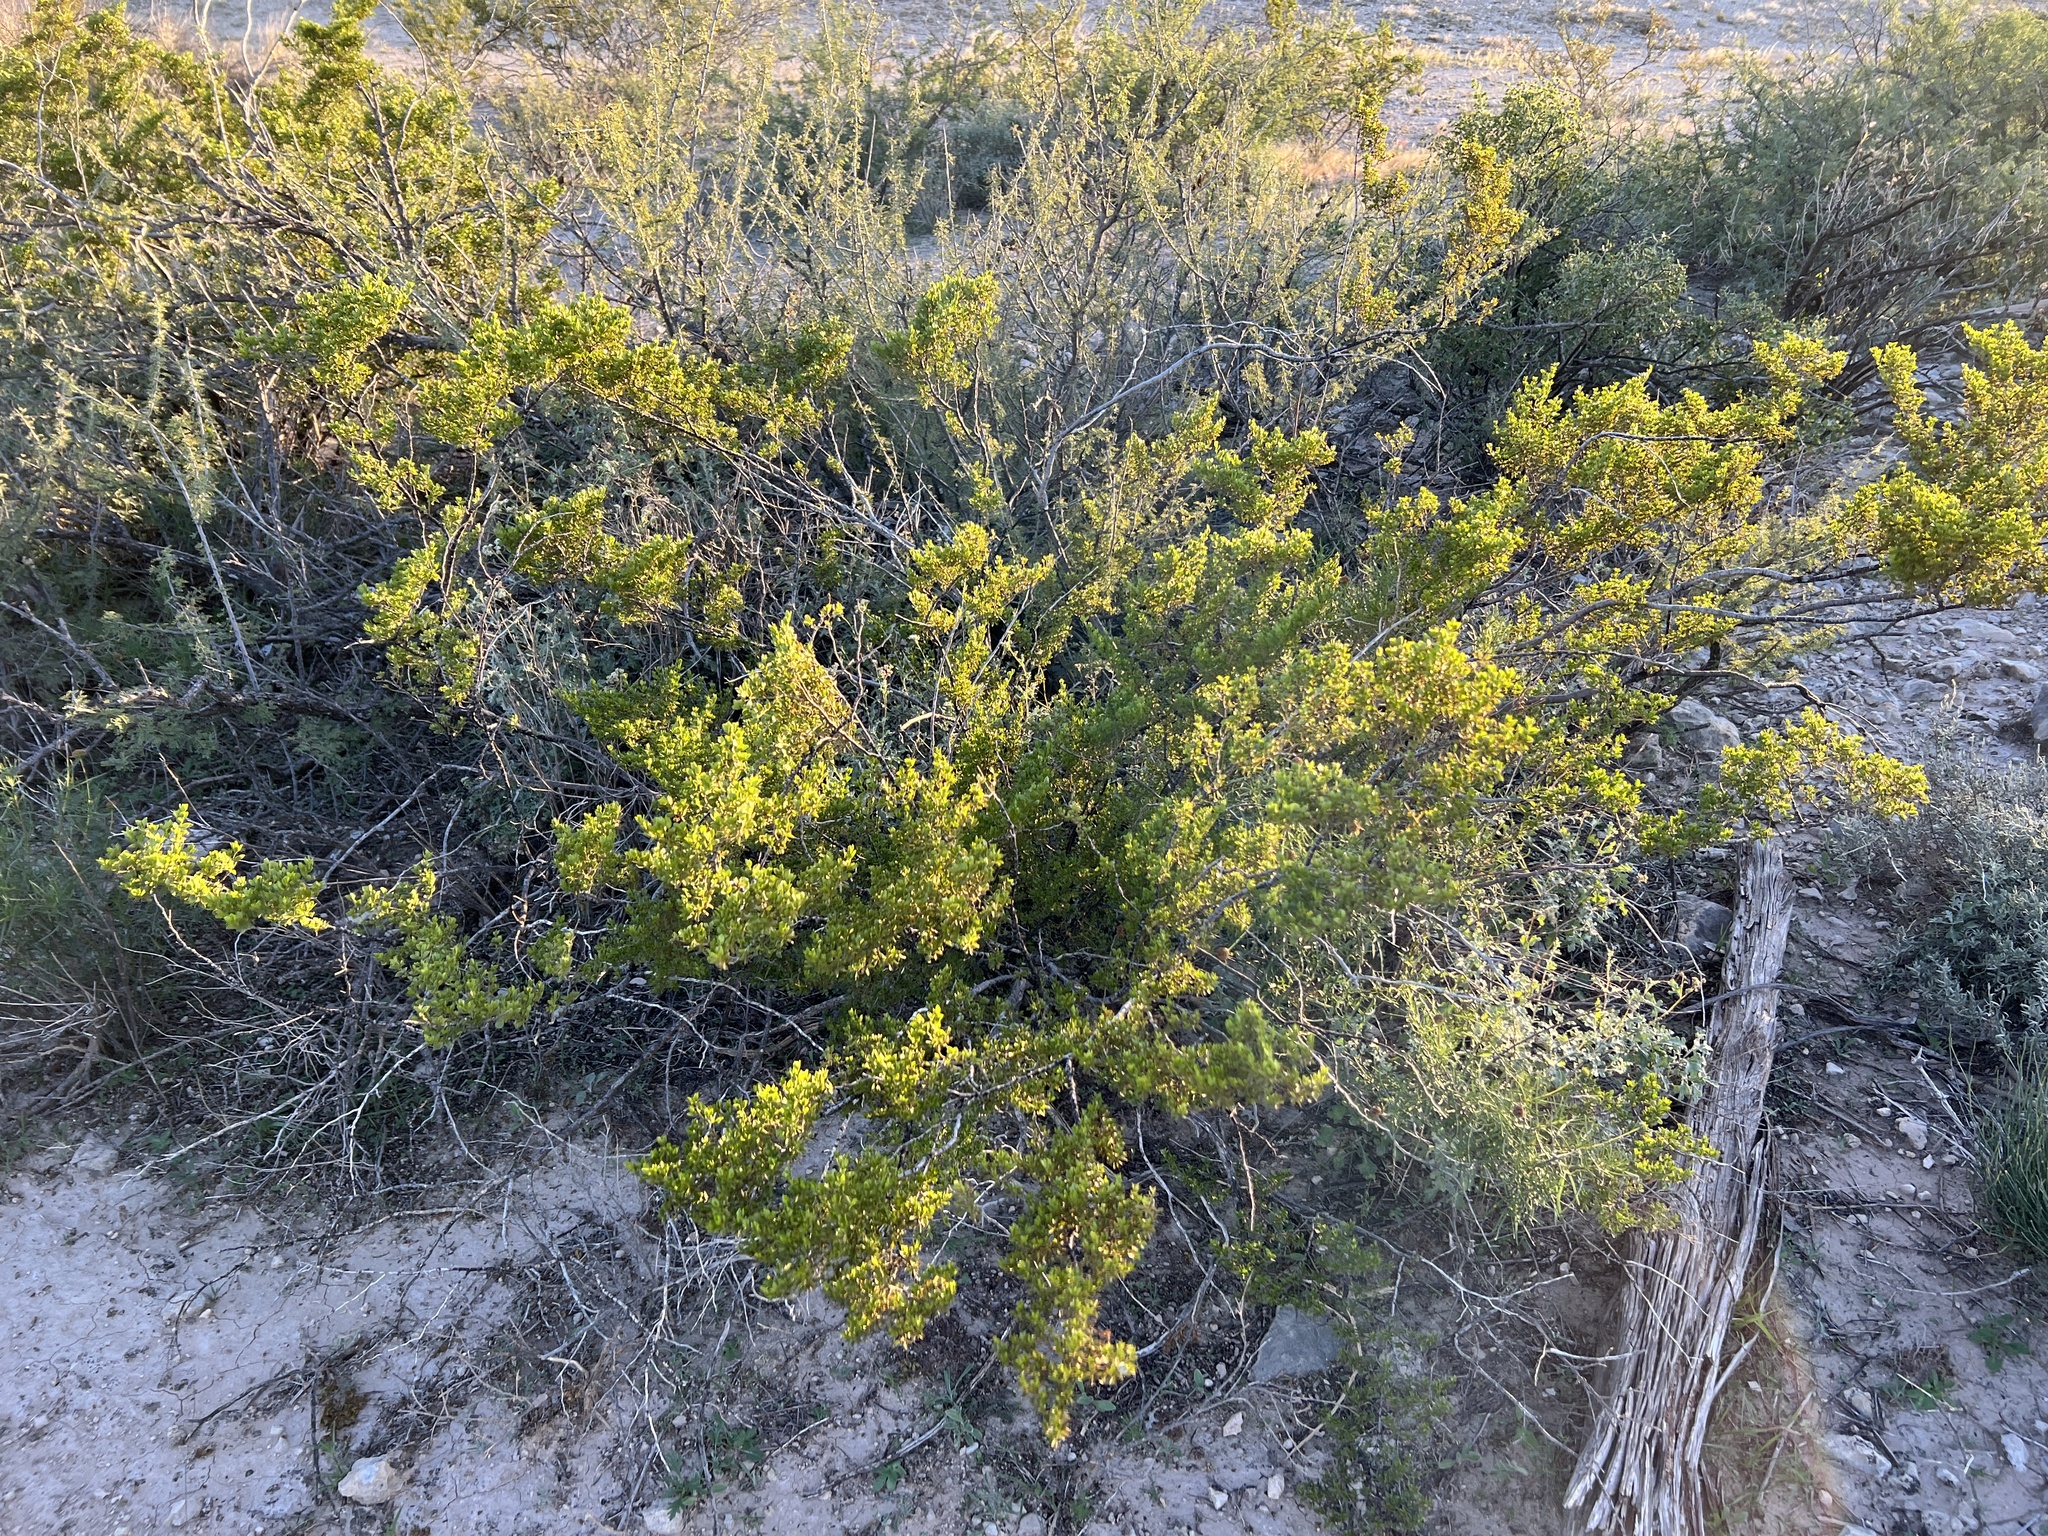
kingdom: Plantae
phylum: Tracheophyta
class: Magnoliopsida
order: Zygophyllales
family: Zygophyllaceae
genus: Larrea
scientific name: Larrea tridentata
